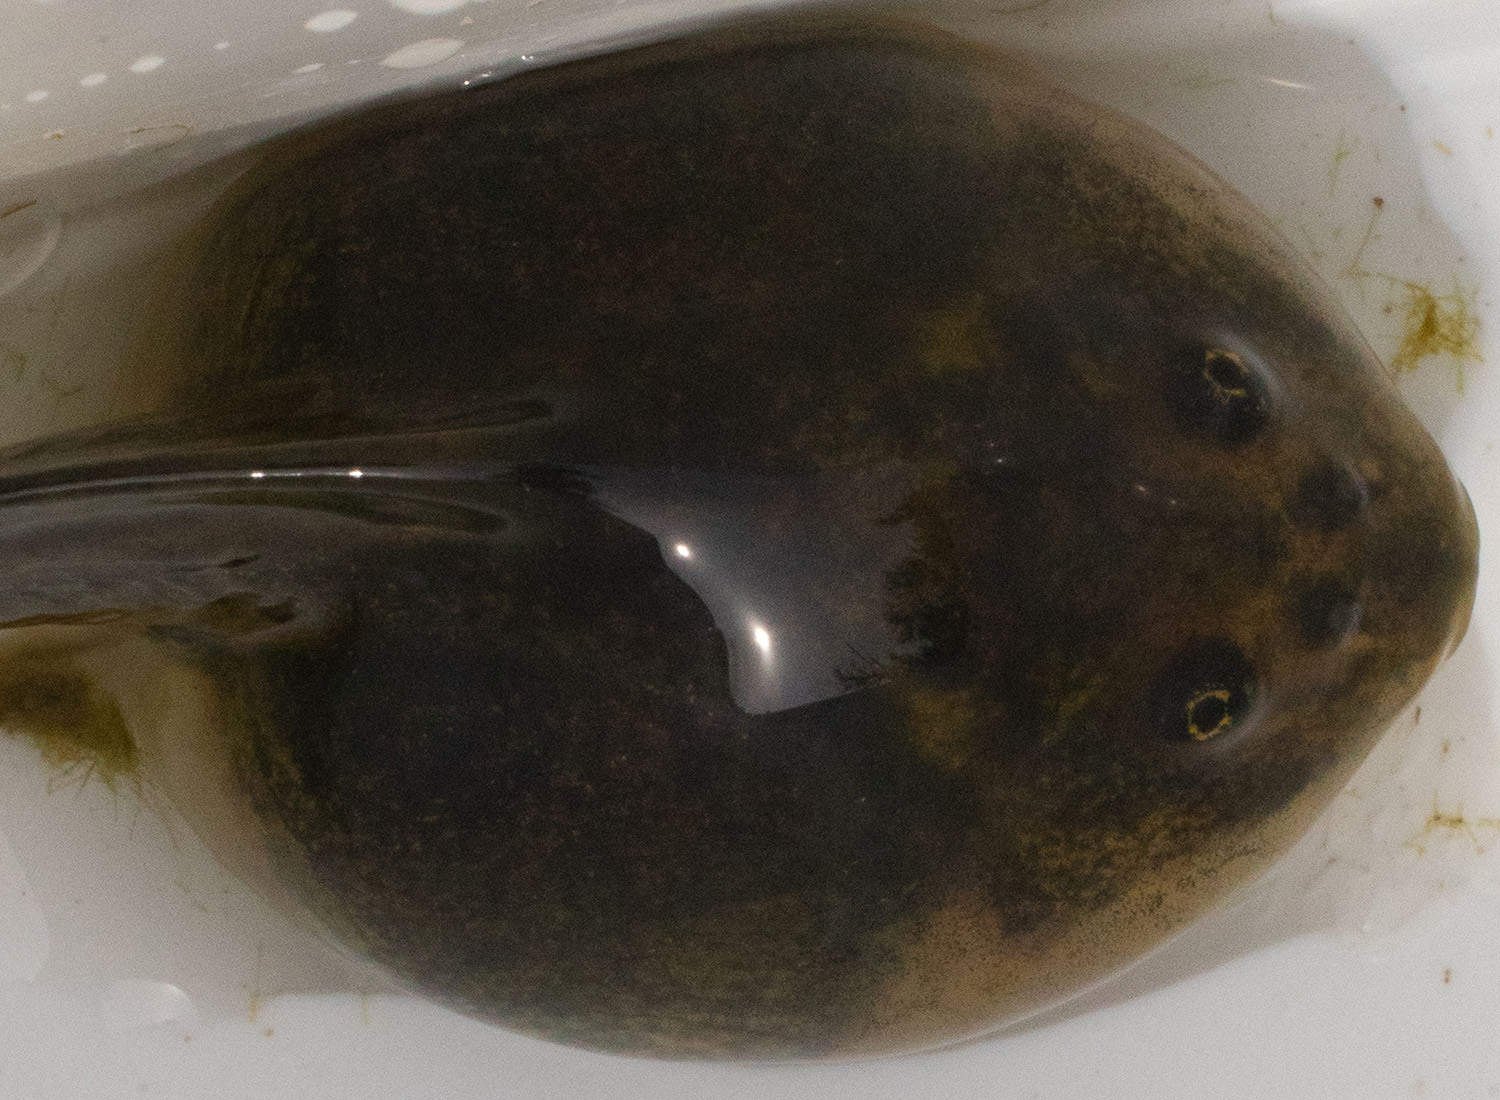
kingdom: Animalia
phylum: Chordata
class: Amphibia
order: Anura
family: Scaphiopodidae
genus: Spea
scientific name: Spea hammondii
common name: Western spadefoot toad
